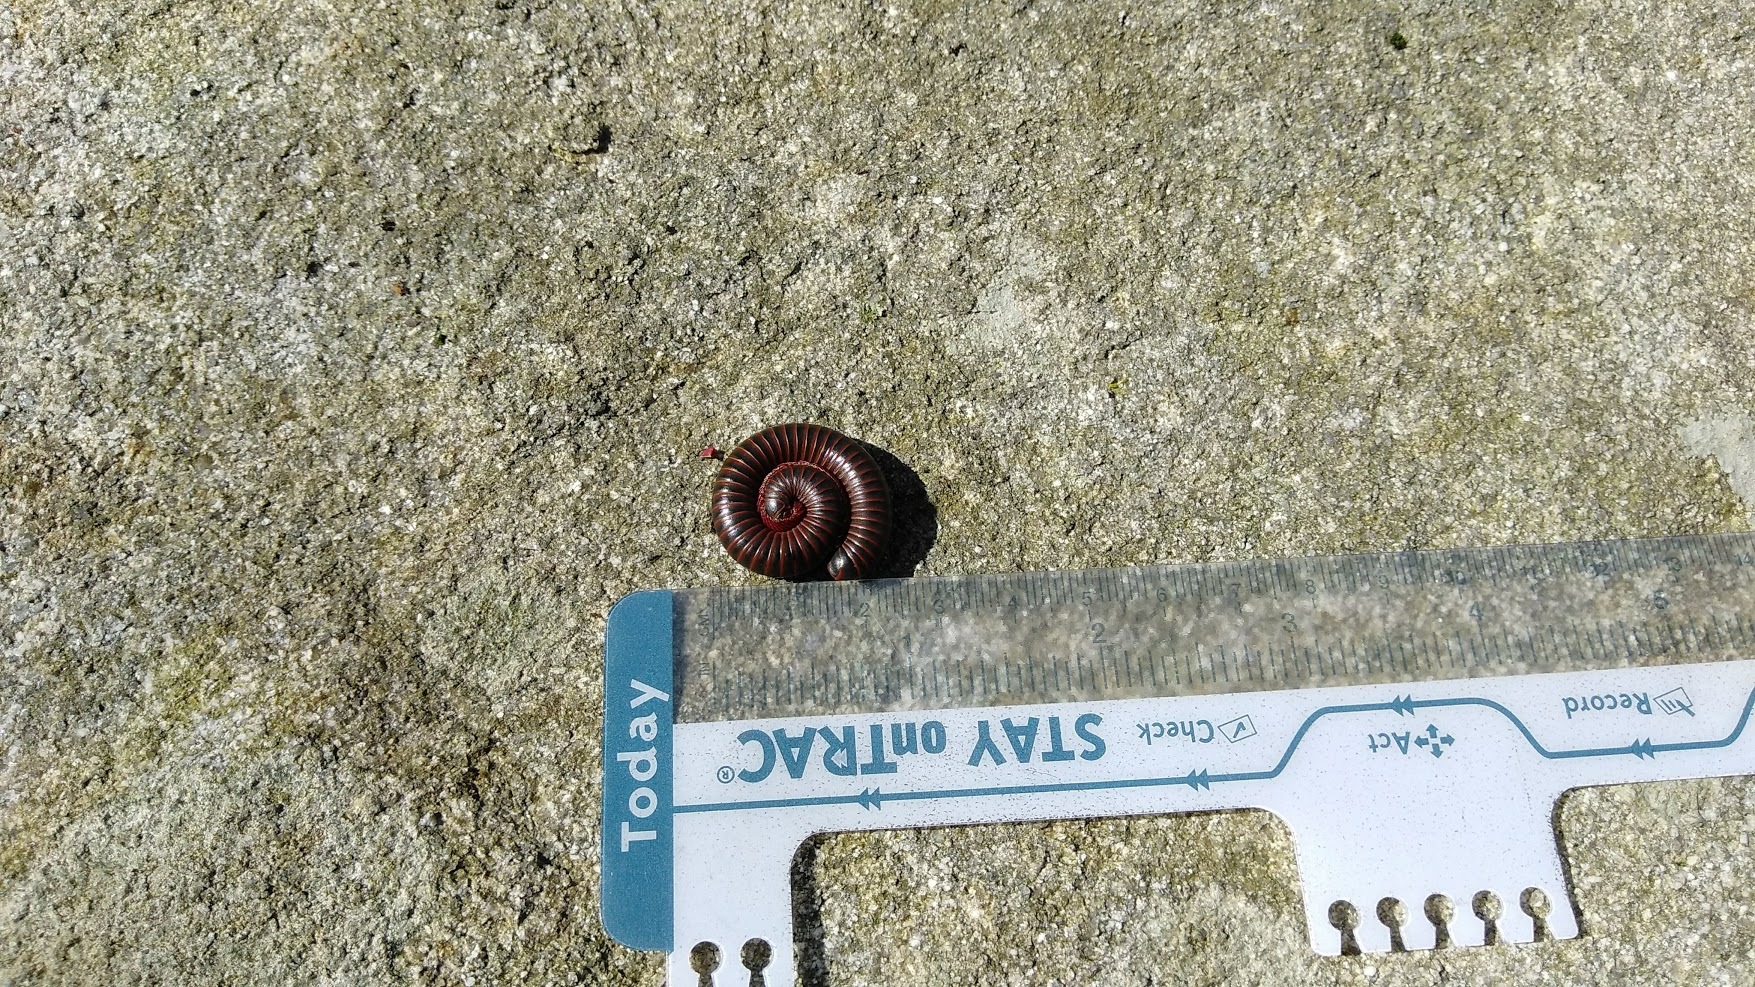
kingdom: Animalia
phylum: Arthropoda
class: Diplopoda
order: Spirobolida
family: Spirobolidae
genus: Narceus
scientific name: Narceus
